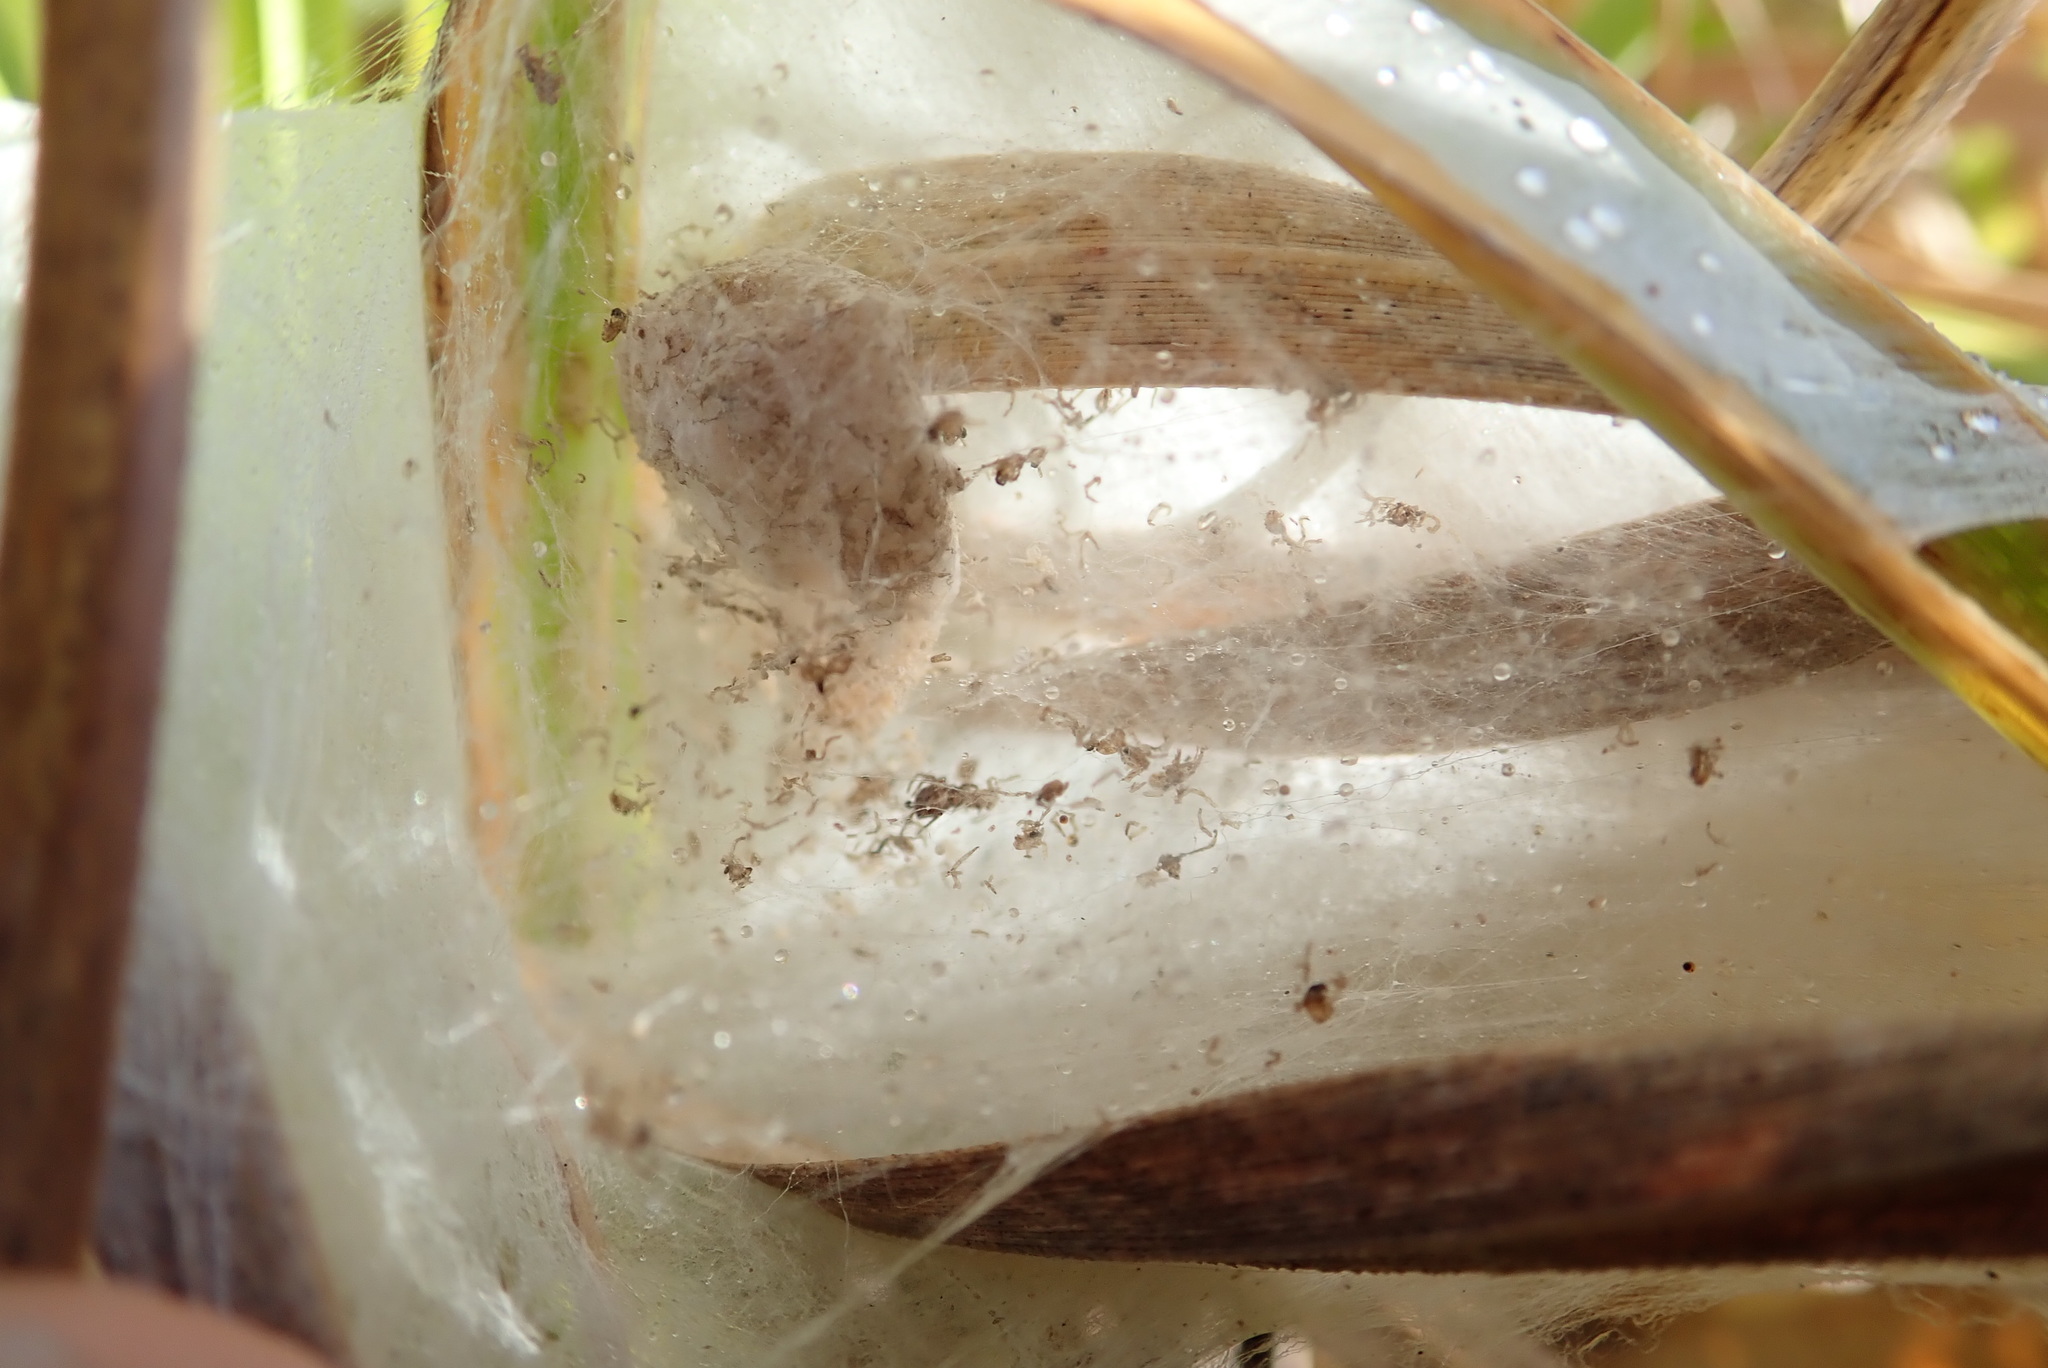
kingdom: Animalia
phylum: Arthropoda
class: Arachnida
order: Araneae
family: Pisauridae
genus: Dolomedes
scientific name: Dolomedes minor
